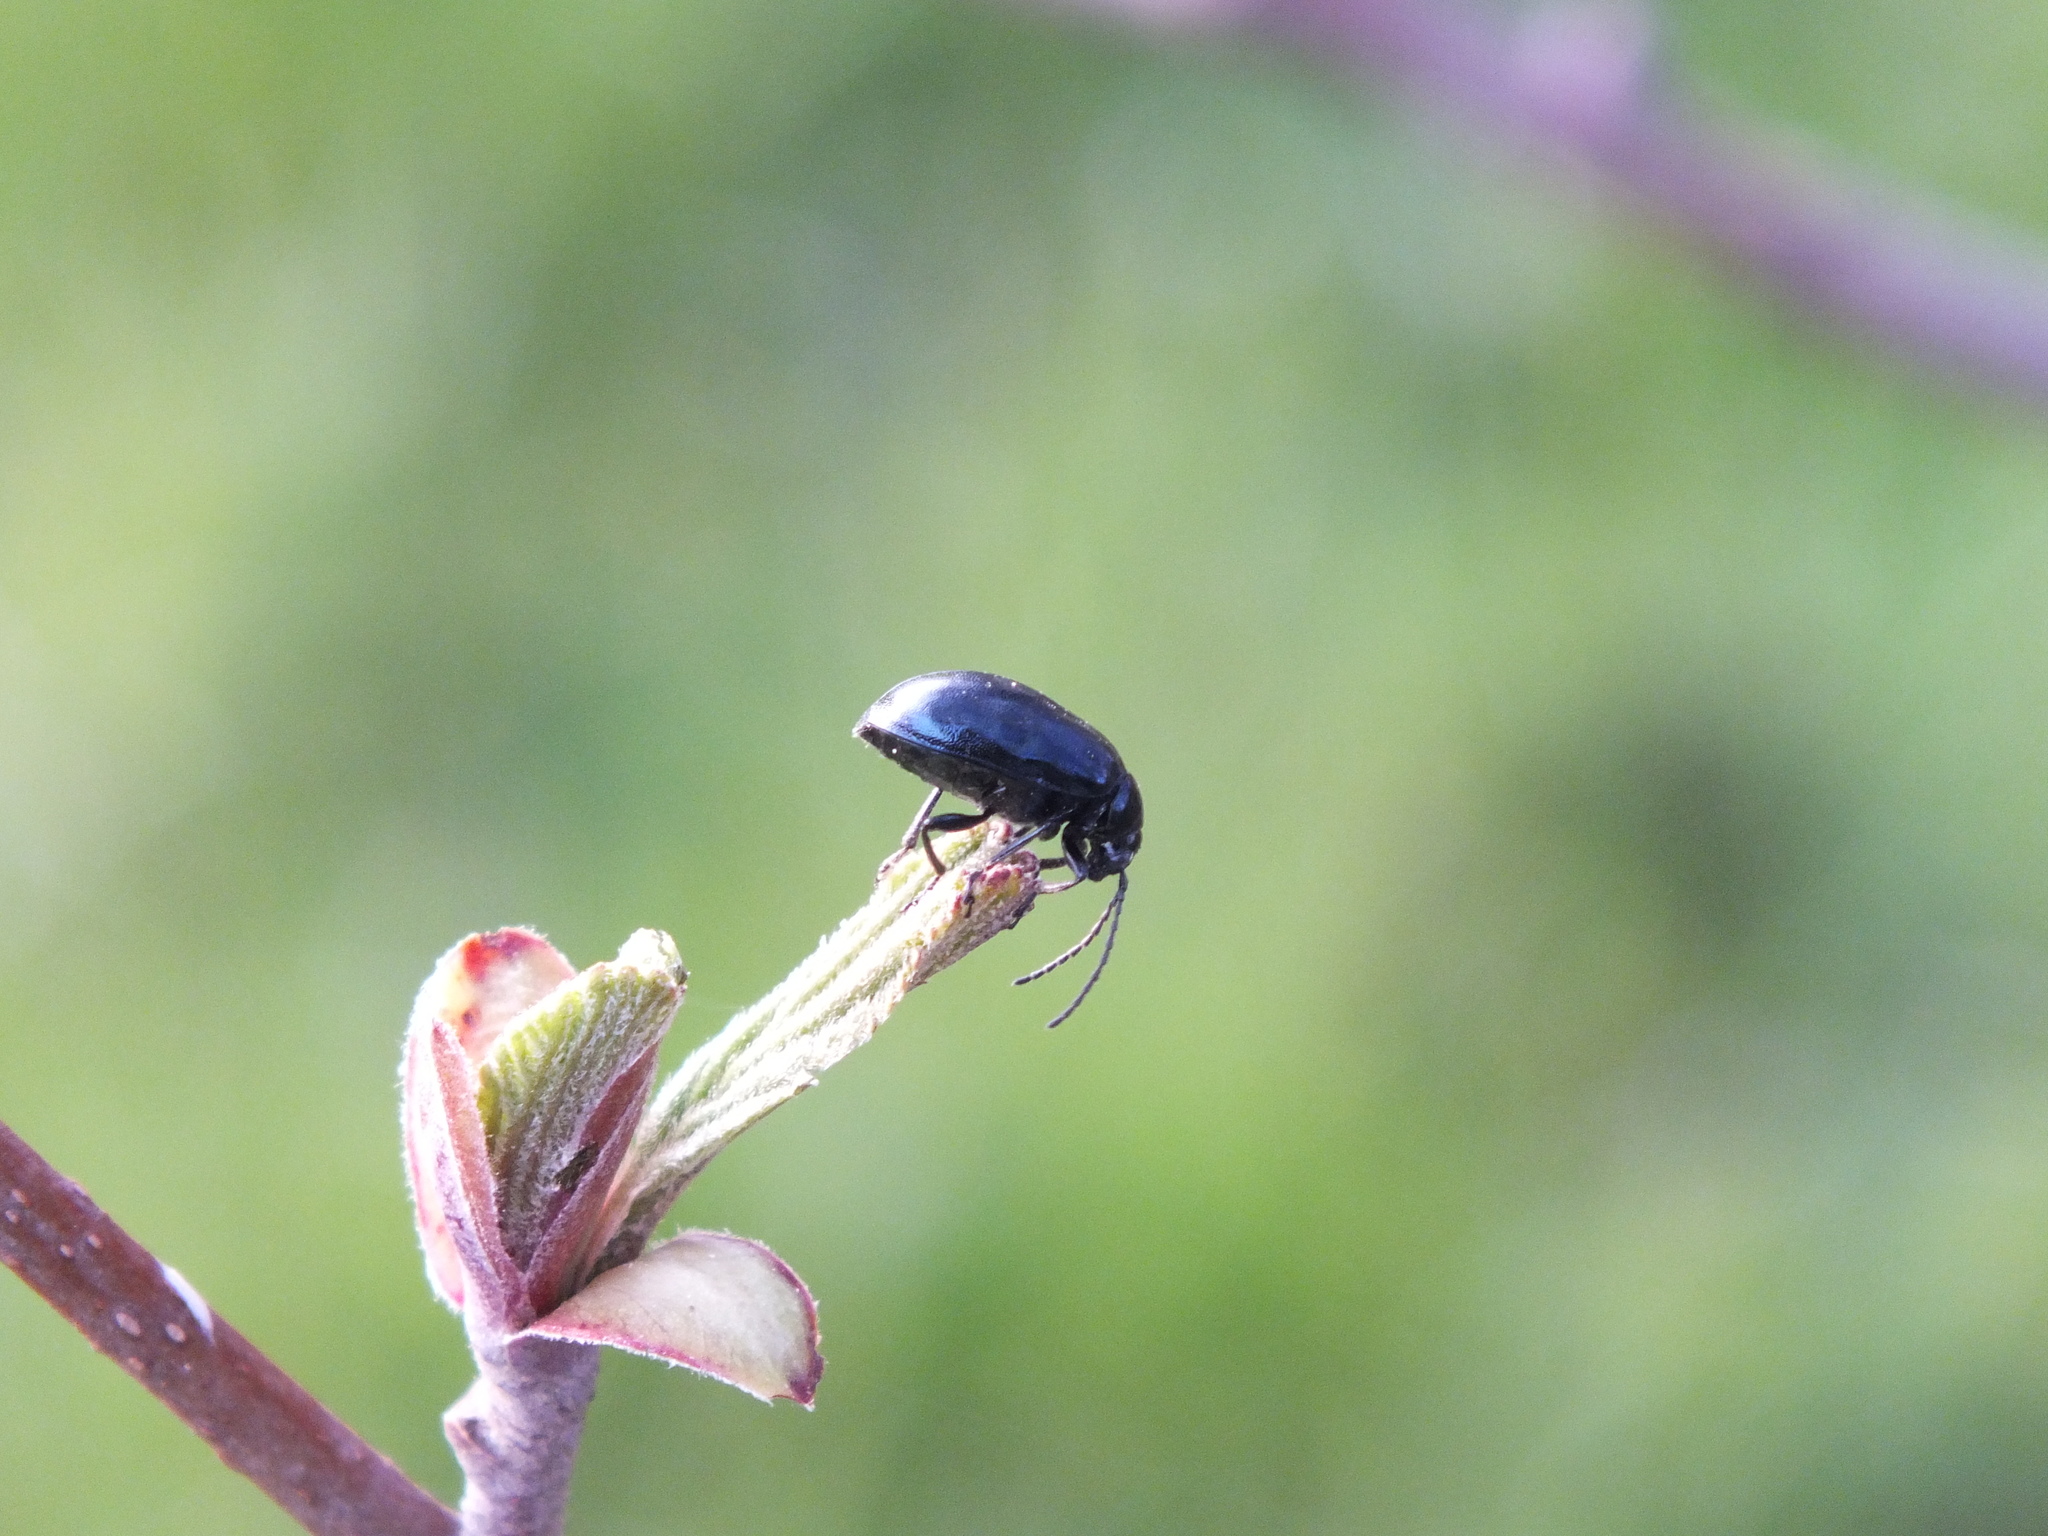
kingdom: Animalia
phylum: Arthropoda
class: Insecta
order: Coleoptera
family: Chrysomelidae
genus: Agelastica
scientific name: Agelastica alni
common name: Alder leaf beetle
